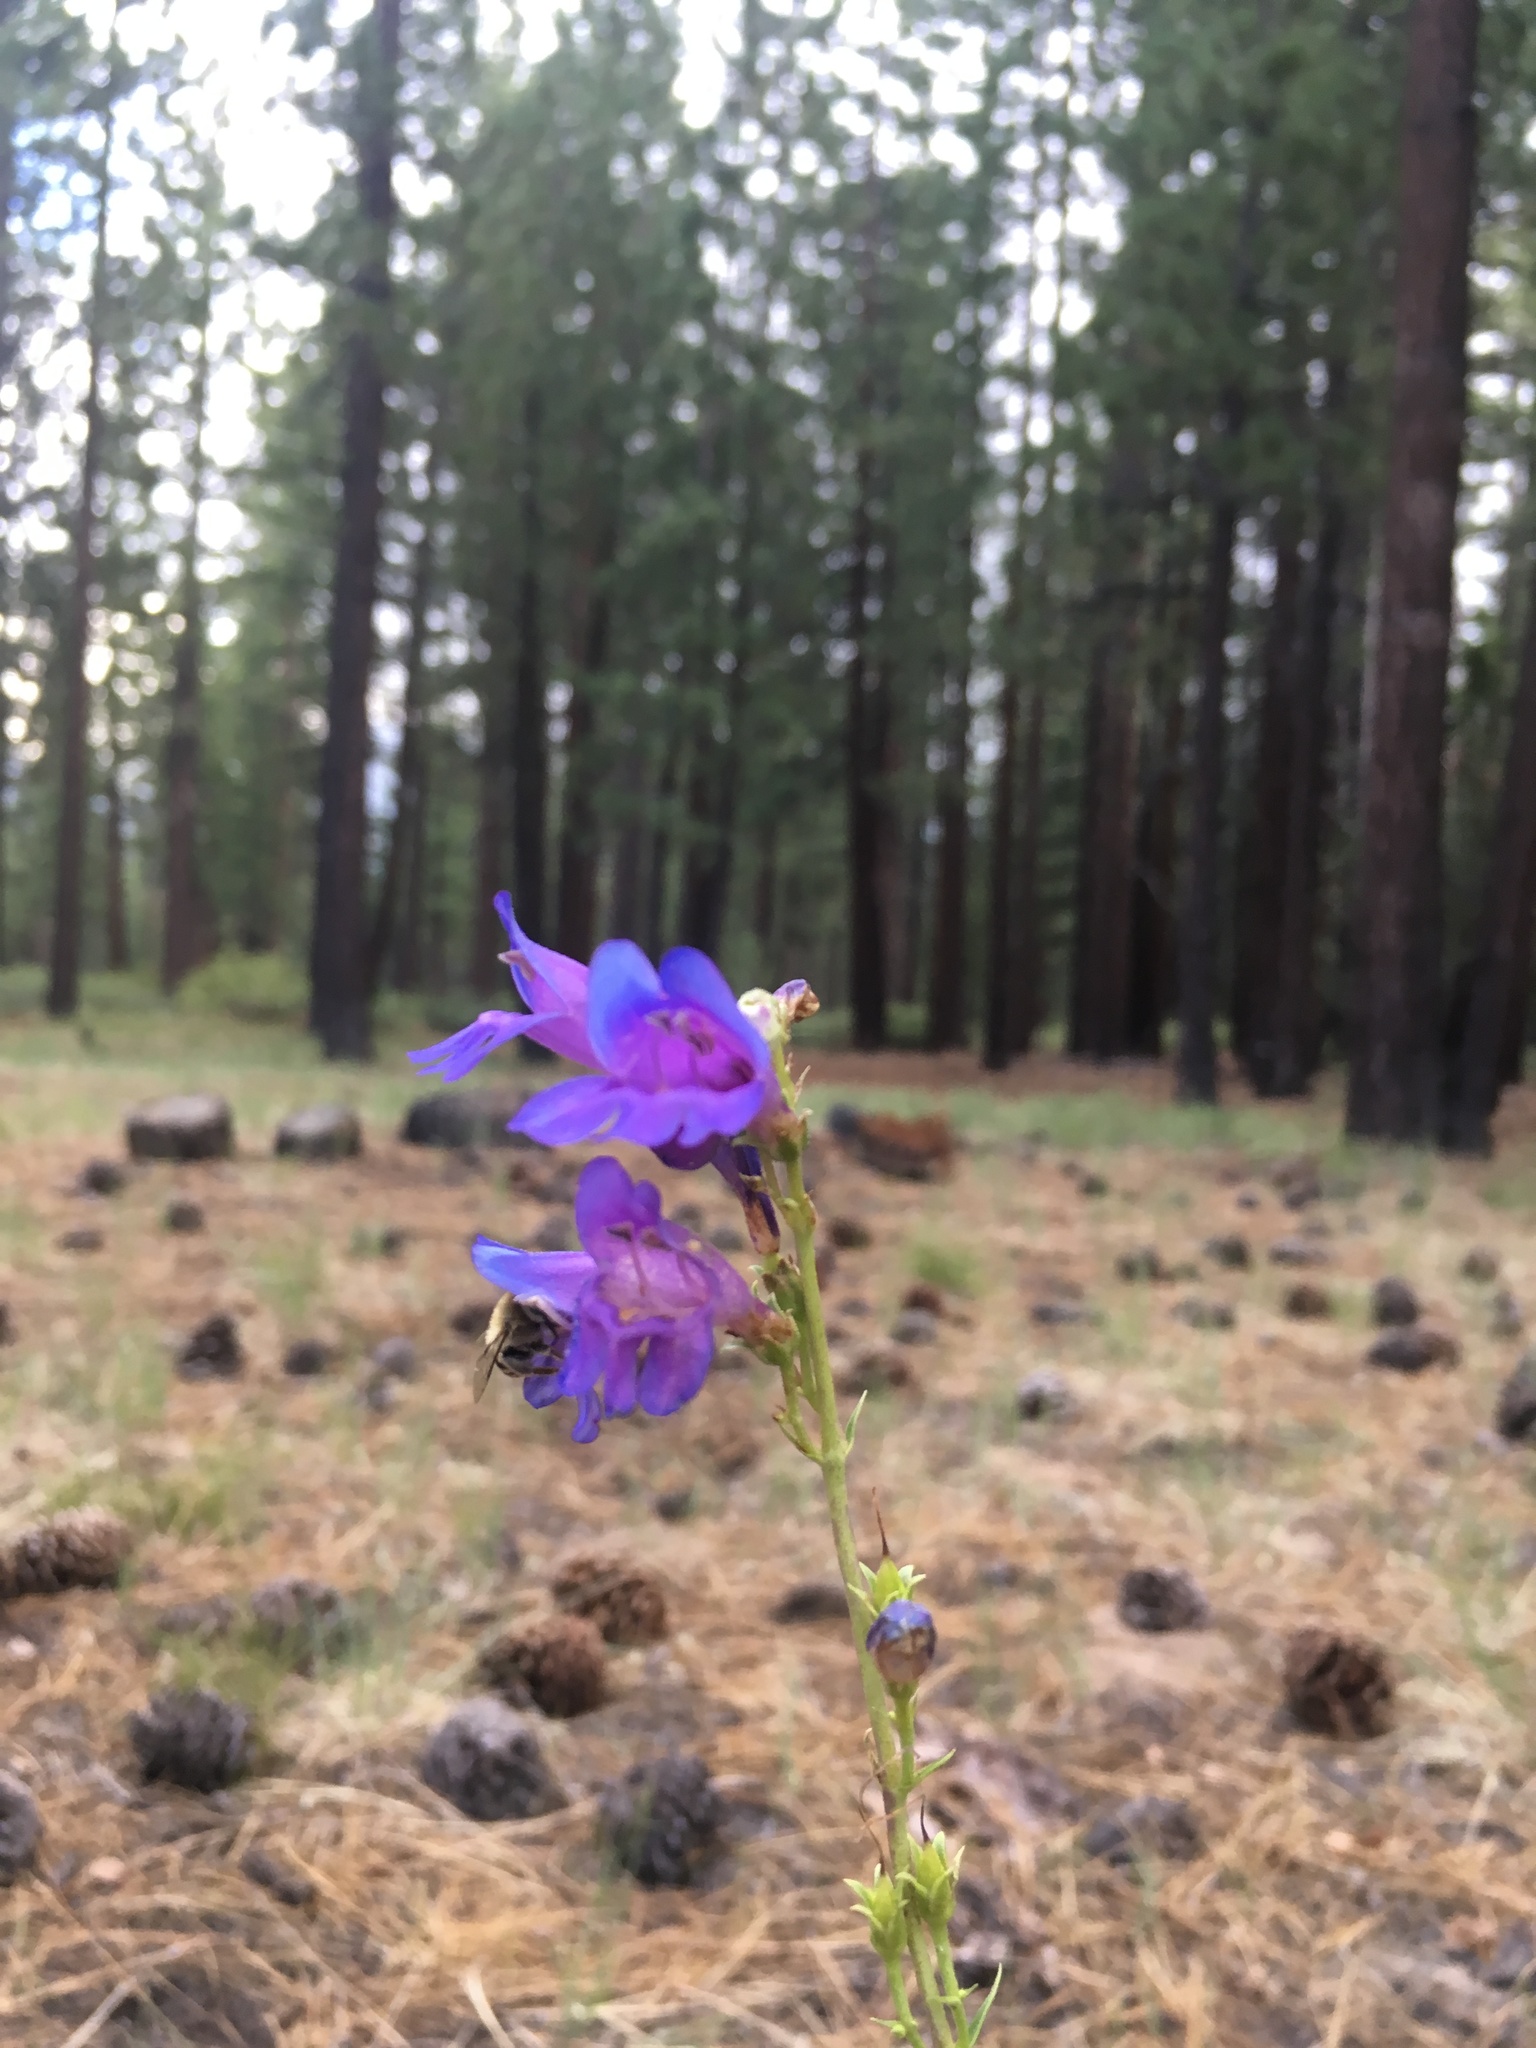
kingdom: Animalia
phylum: Arthropoda
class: Insecta
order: Hymenoptera
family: Apidae
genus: Anthophora
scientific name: Anthophora urbana
